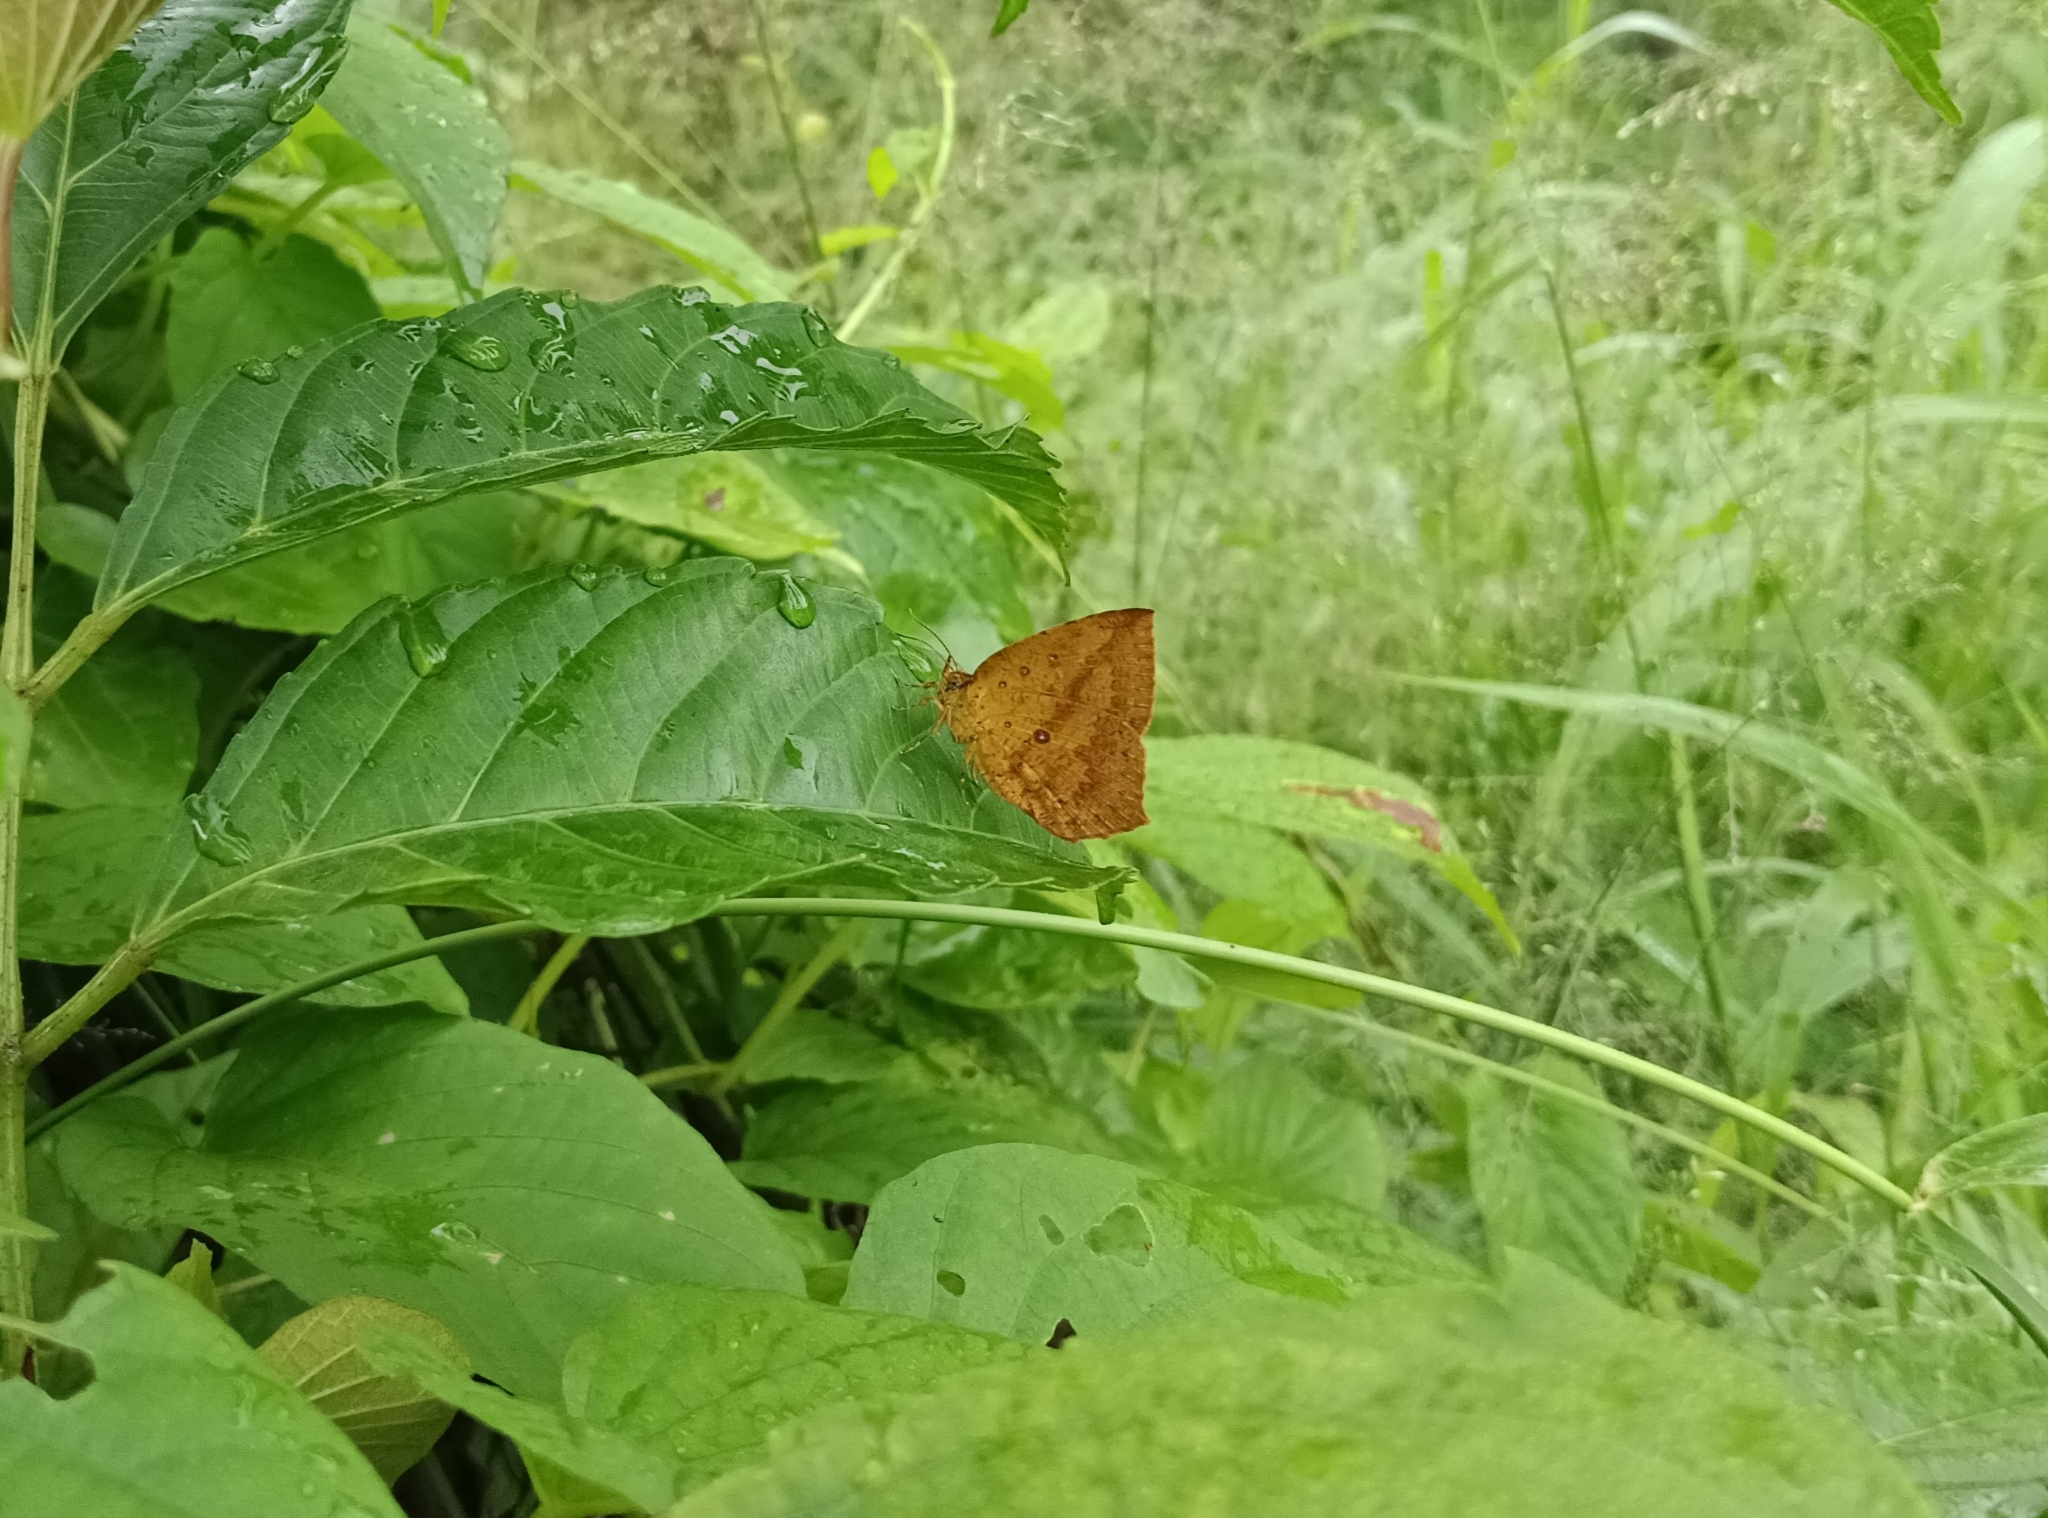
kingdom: Animalia
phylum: Arthropoda
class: Insecta
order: Lepidoptera
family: Callidulidae
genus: Tetragonus
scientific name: Tetragonus catamitus
